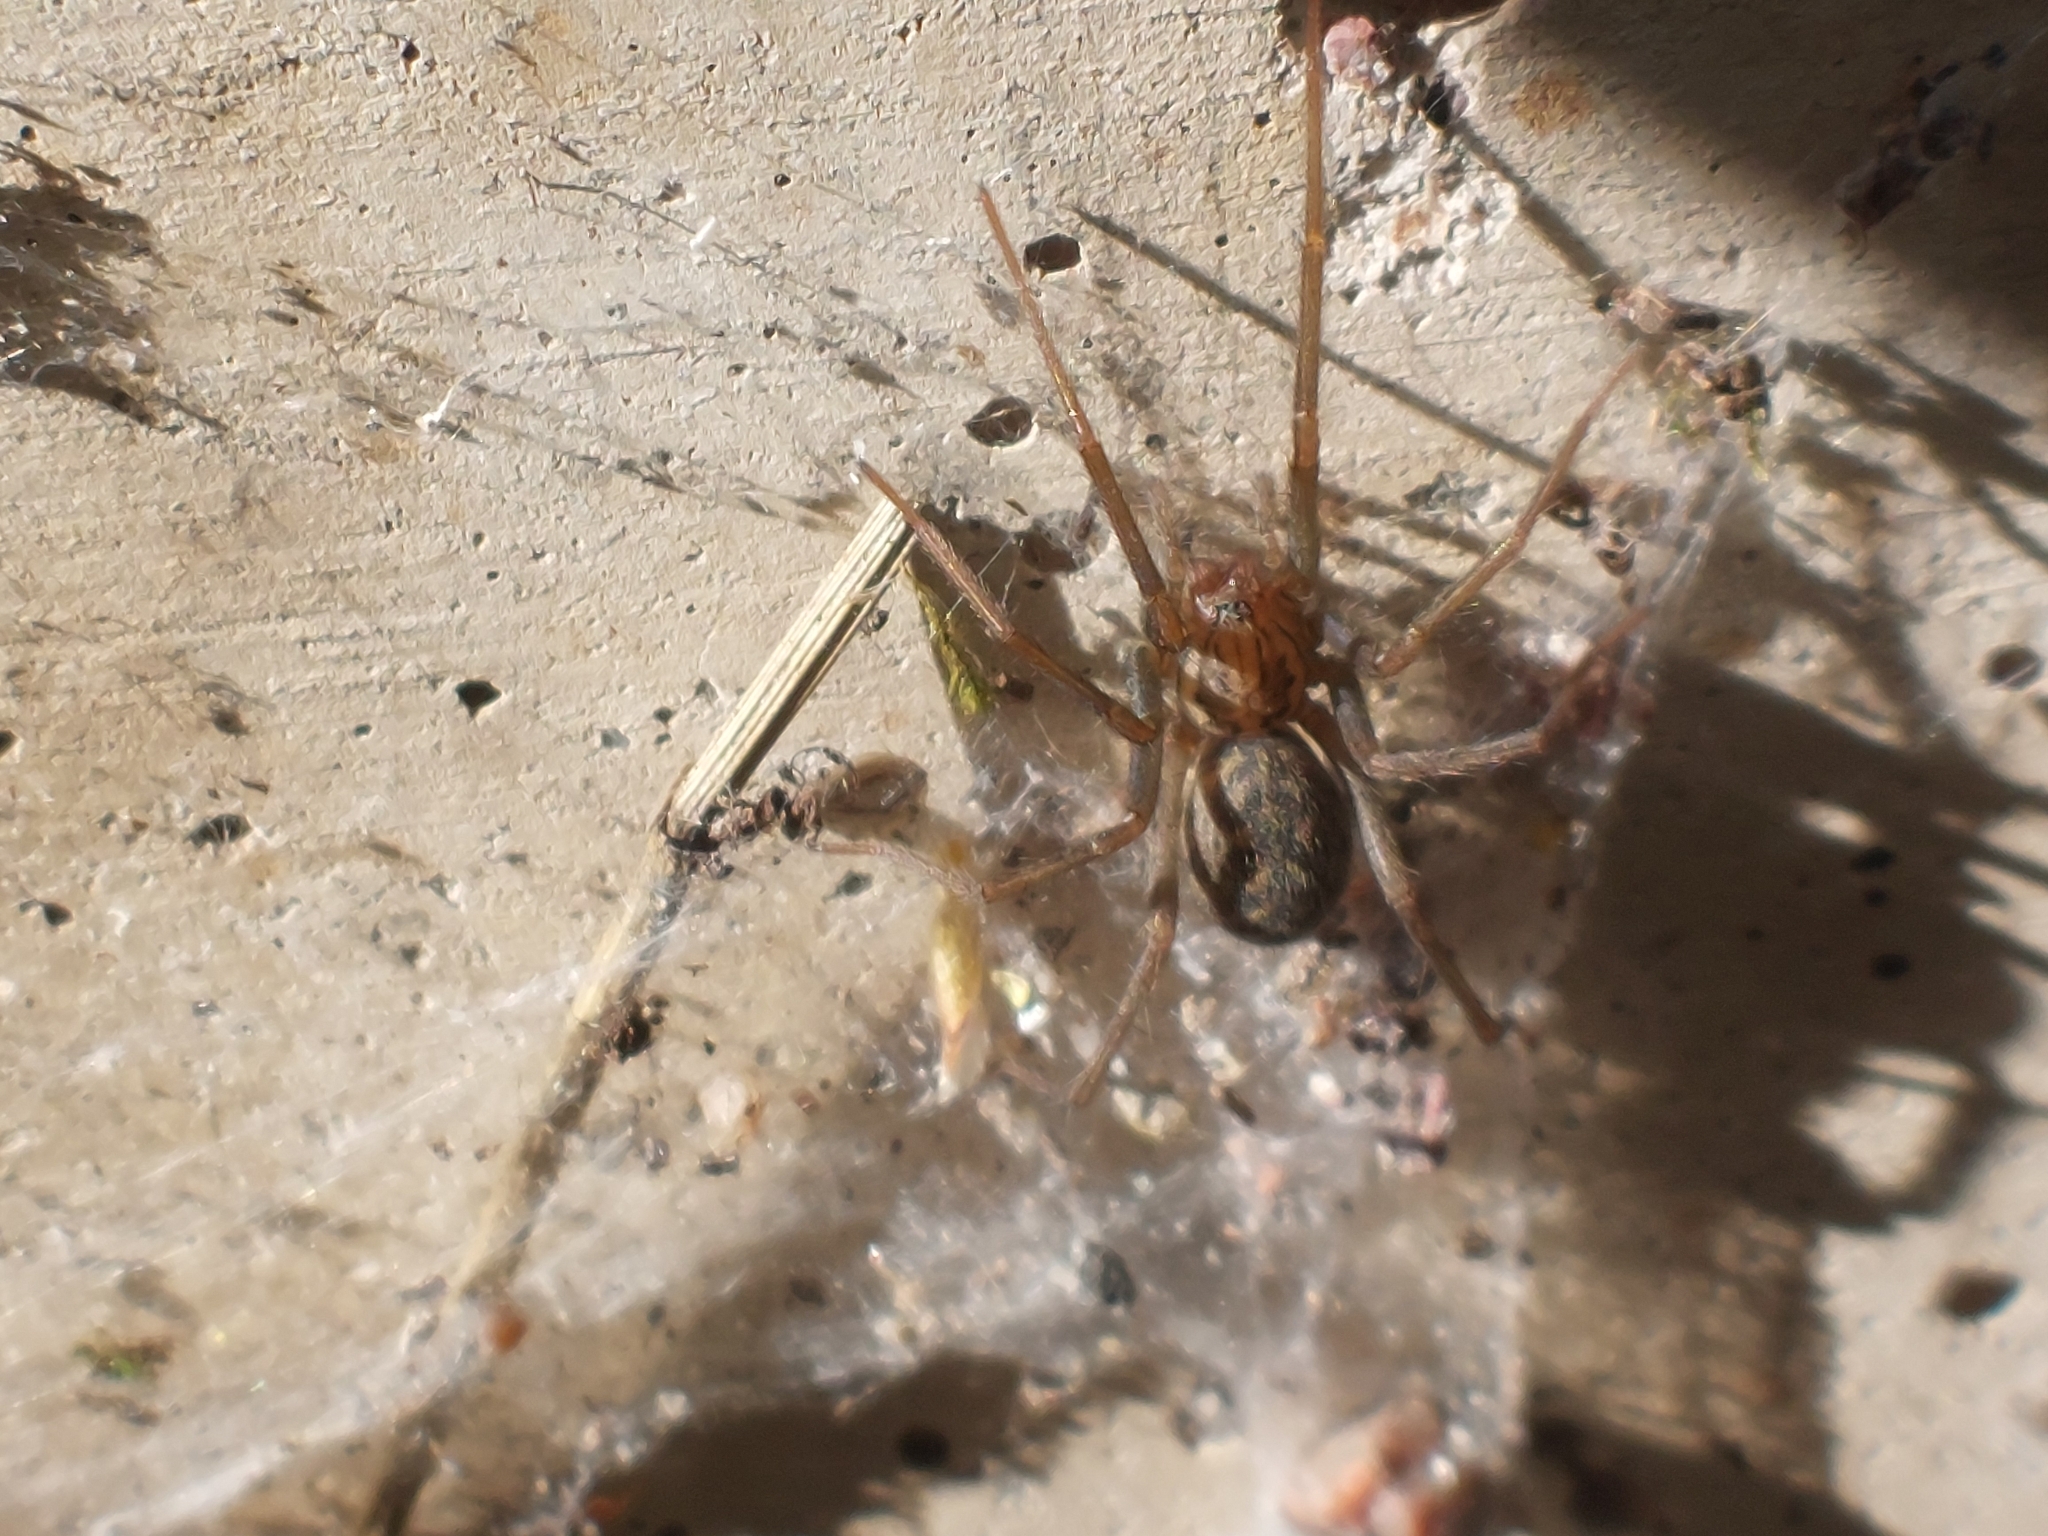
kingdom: Animalia
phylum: Arthropoda
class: Arachnida
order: Araneae
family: Agelenidae
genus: Eratigena
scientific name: Eratigena atrica
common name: Giant house spider
